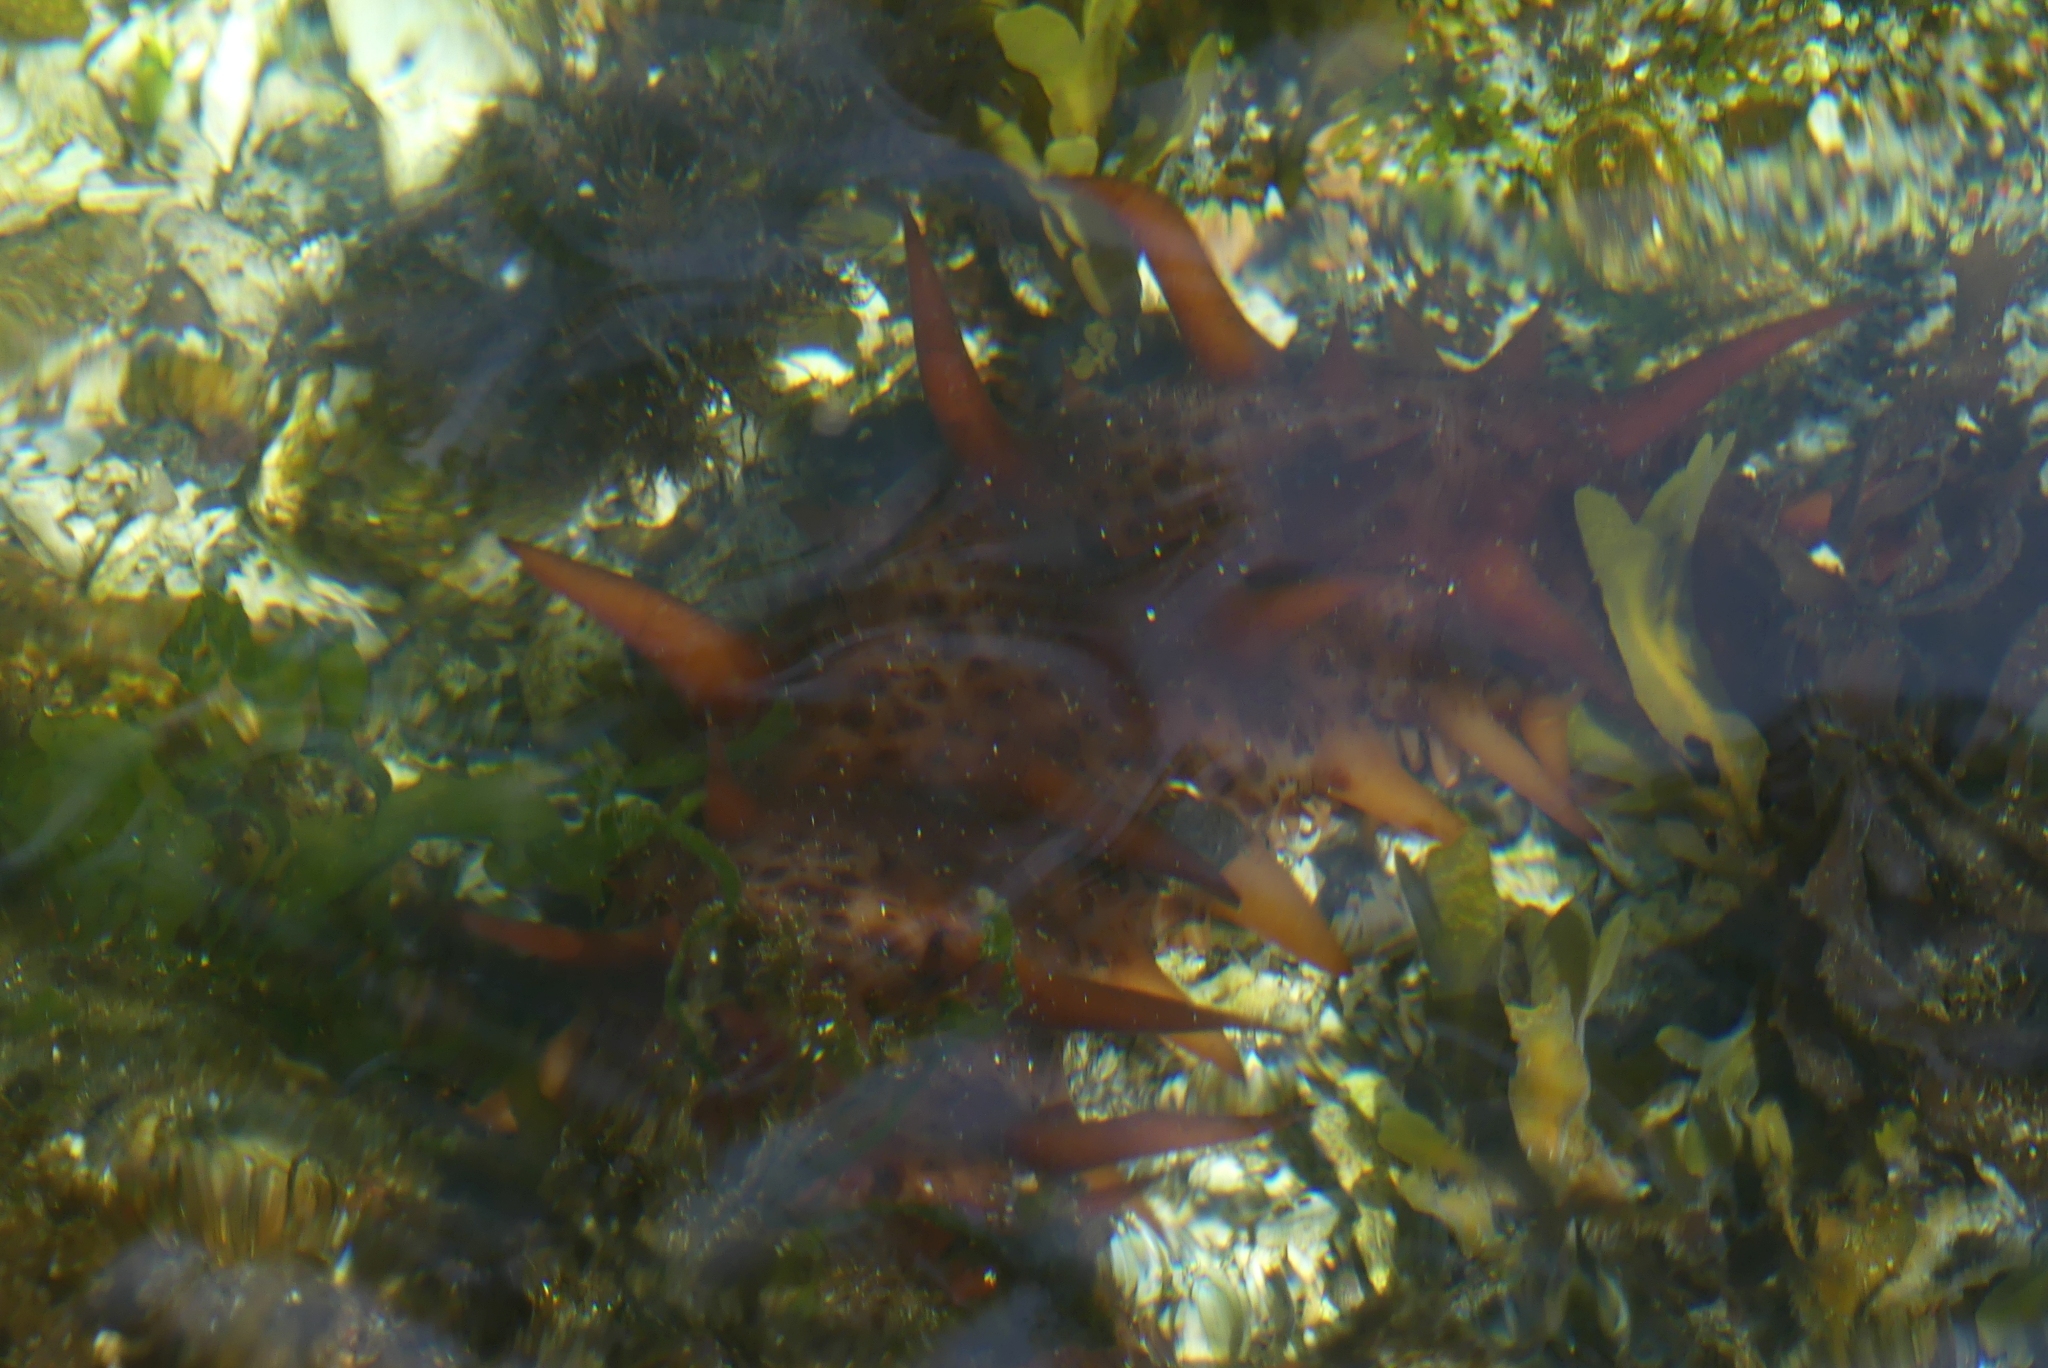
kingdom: Animalia
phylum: Echinodermata
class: Holothuroidea
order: Synallactida
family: Stichopodidae
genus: Apostichopus
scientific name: Apostichopus californicus
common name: California sea cucumber
